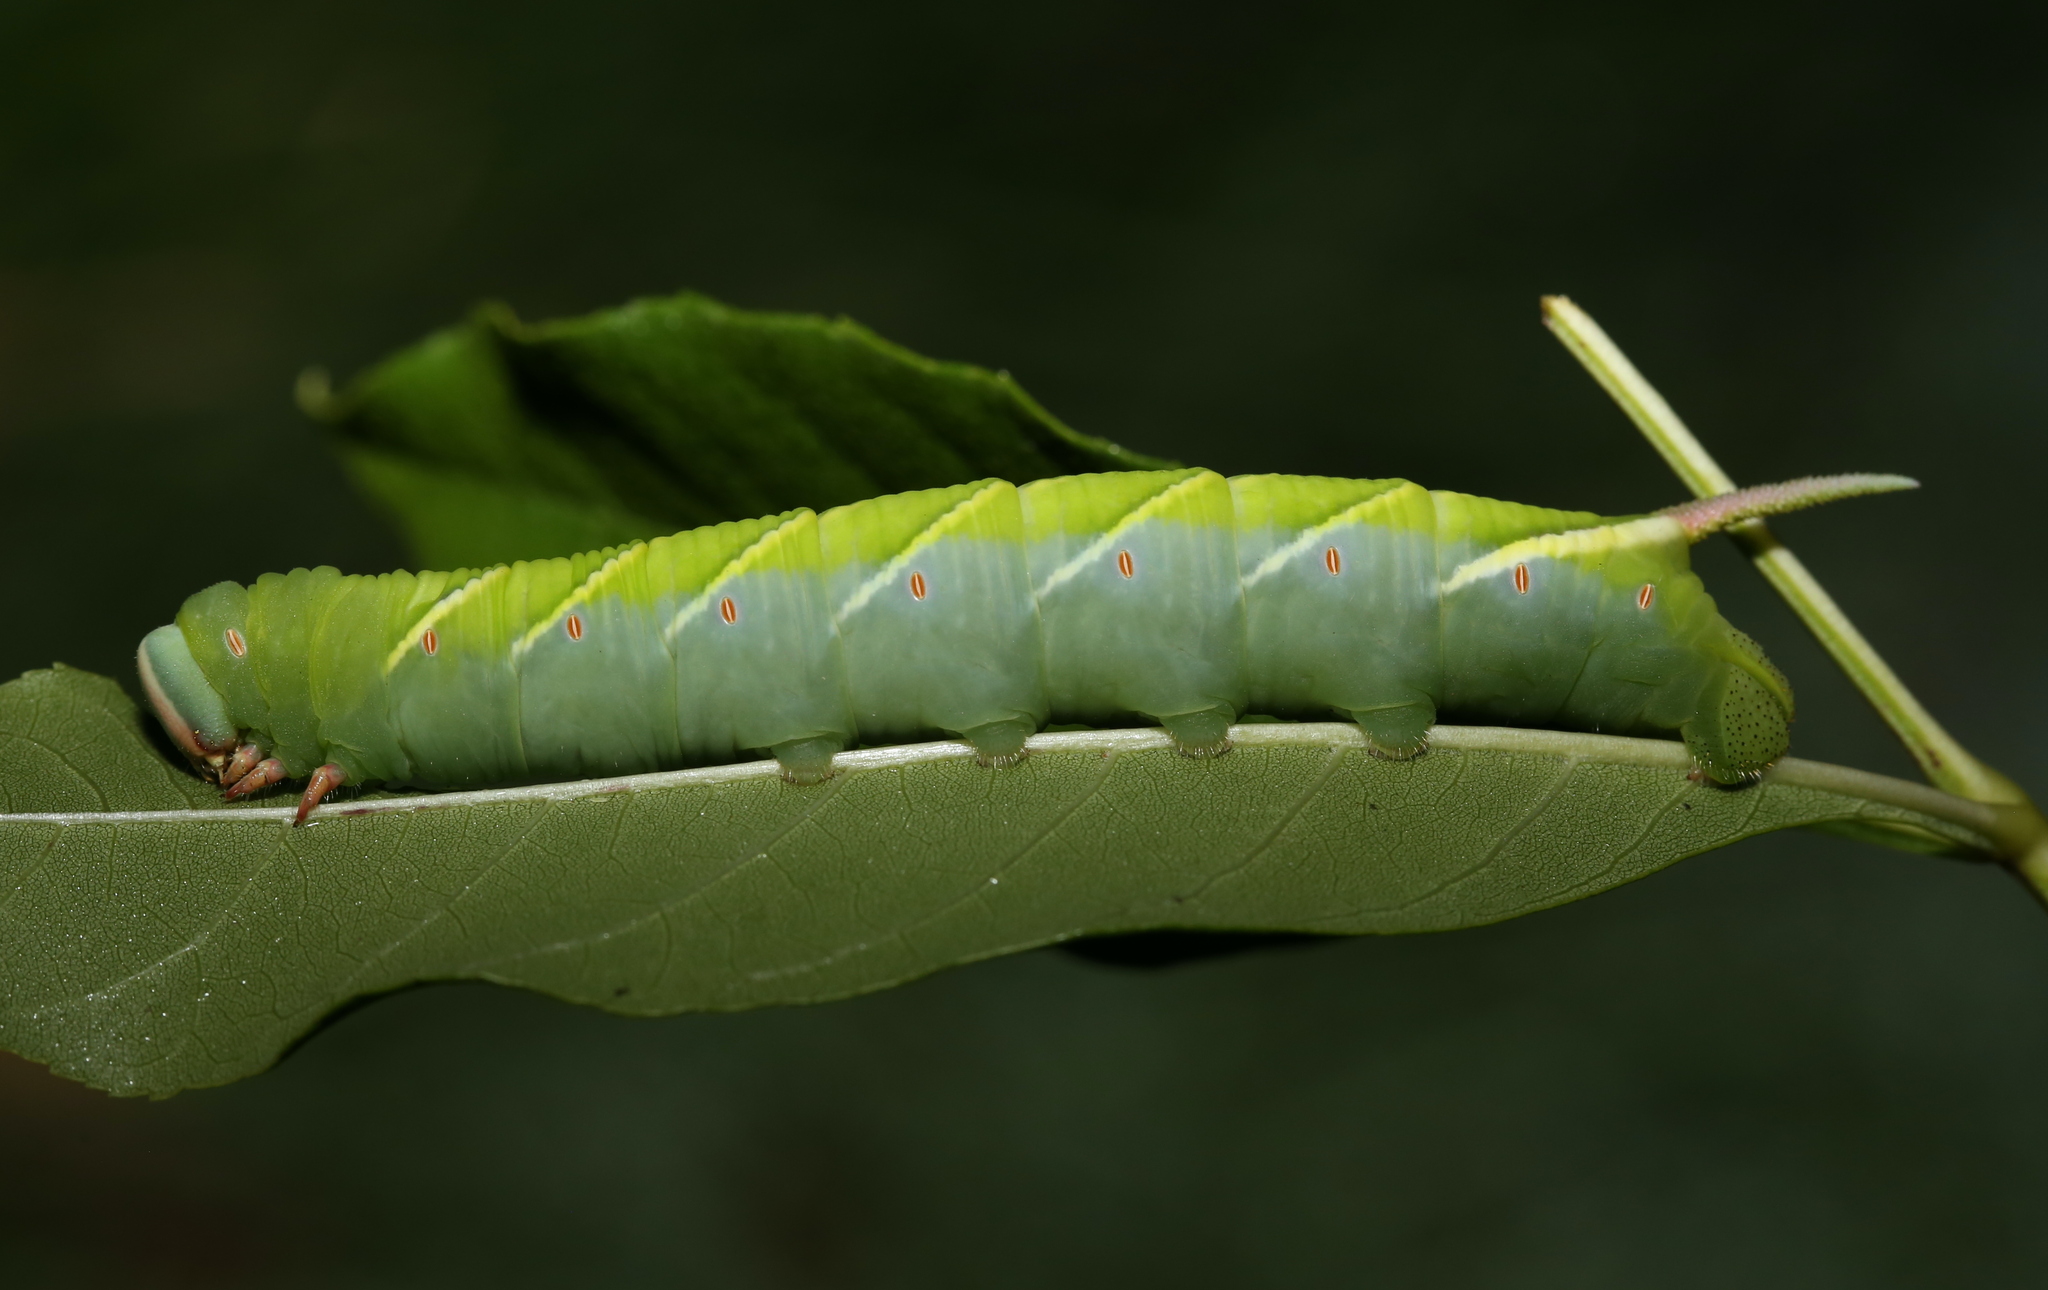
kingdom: Animalia
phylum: Arthropoda
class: Insecta
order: Lepidoptera
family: Sphingidae
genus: Ceratomia
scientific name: Ceratomia undulosa
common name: Waved sphinx
